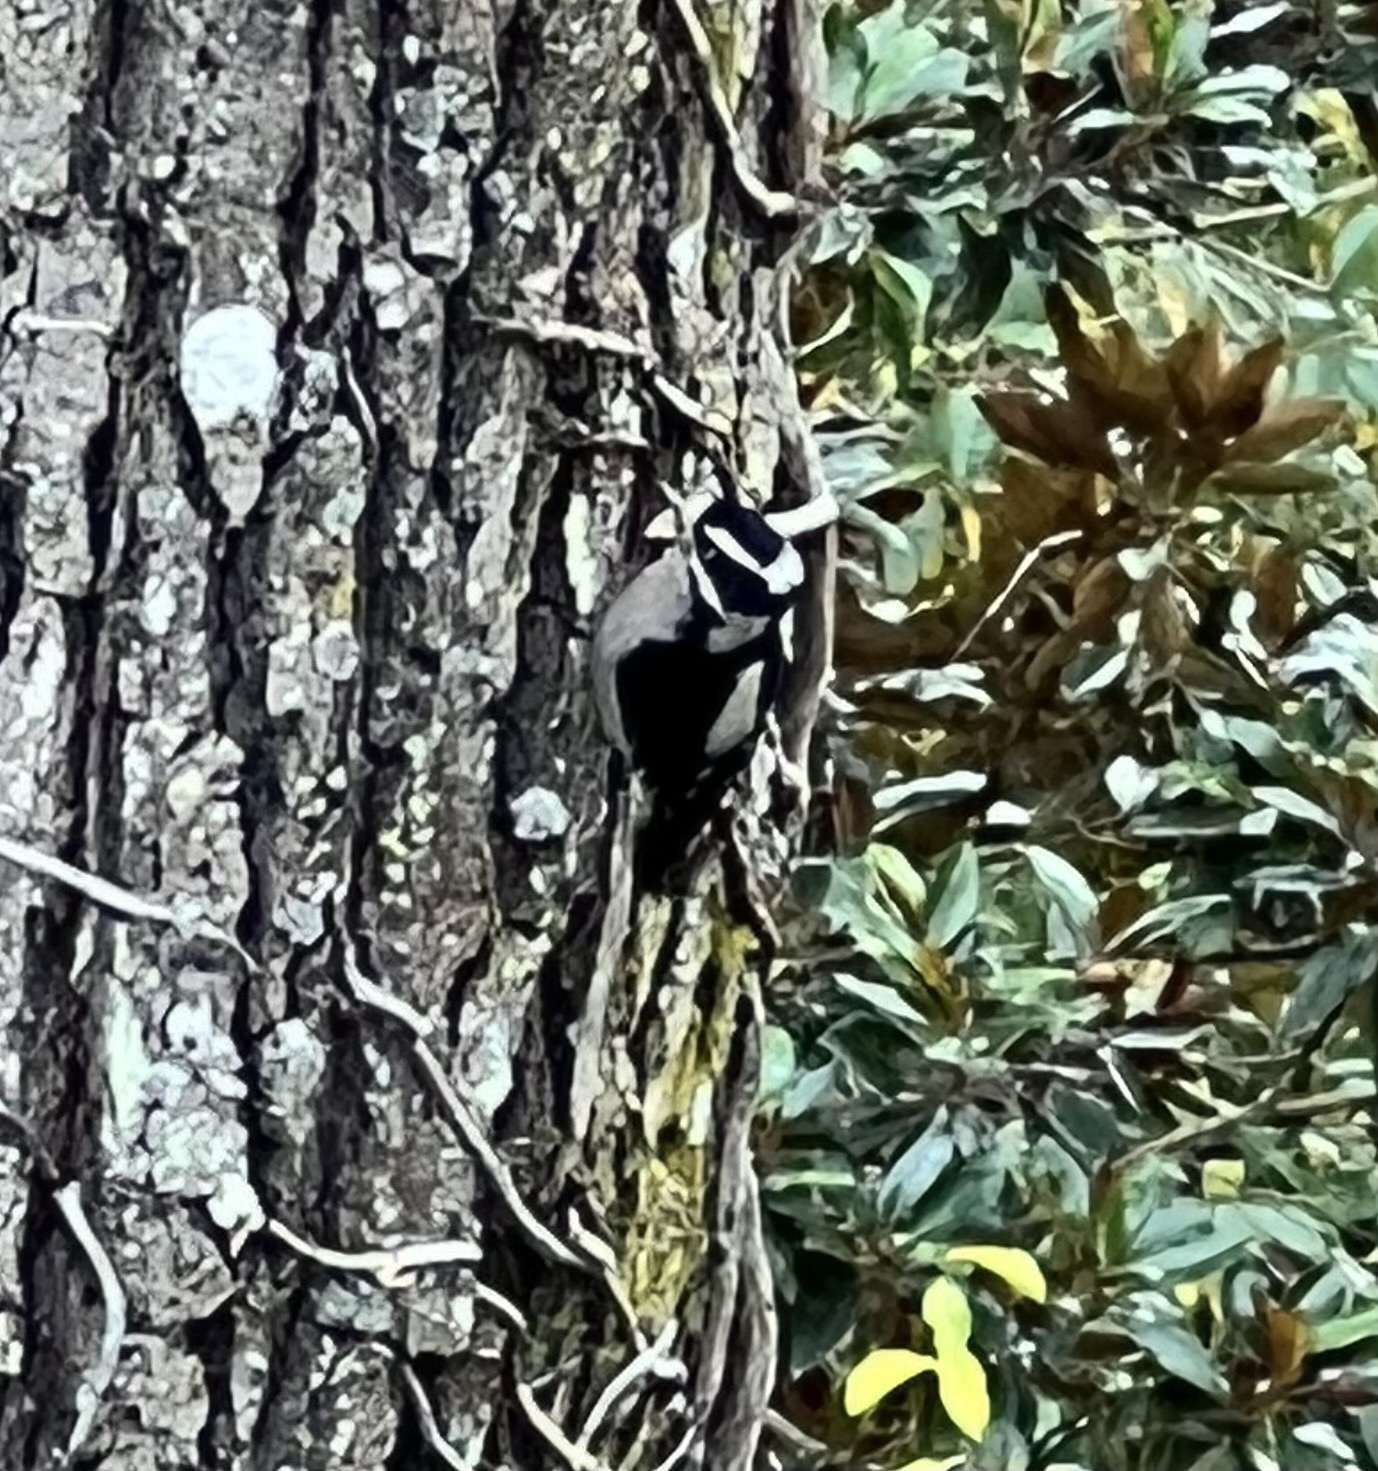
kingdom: Animalia
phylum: Chordata
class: Aves
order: Piciformes
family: Picidae
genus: Dryobates
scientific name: Dryobates pubescens
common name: Downy woodpecker
